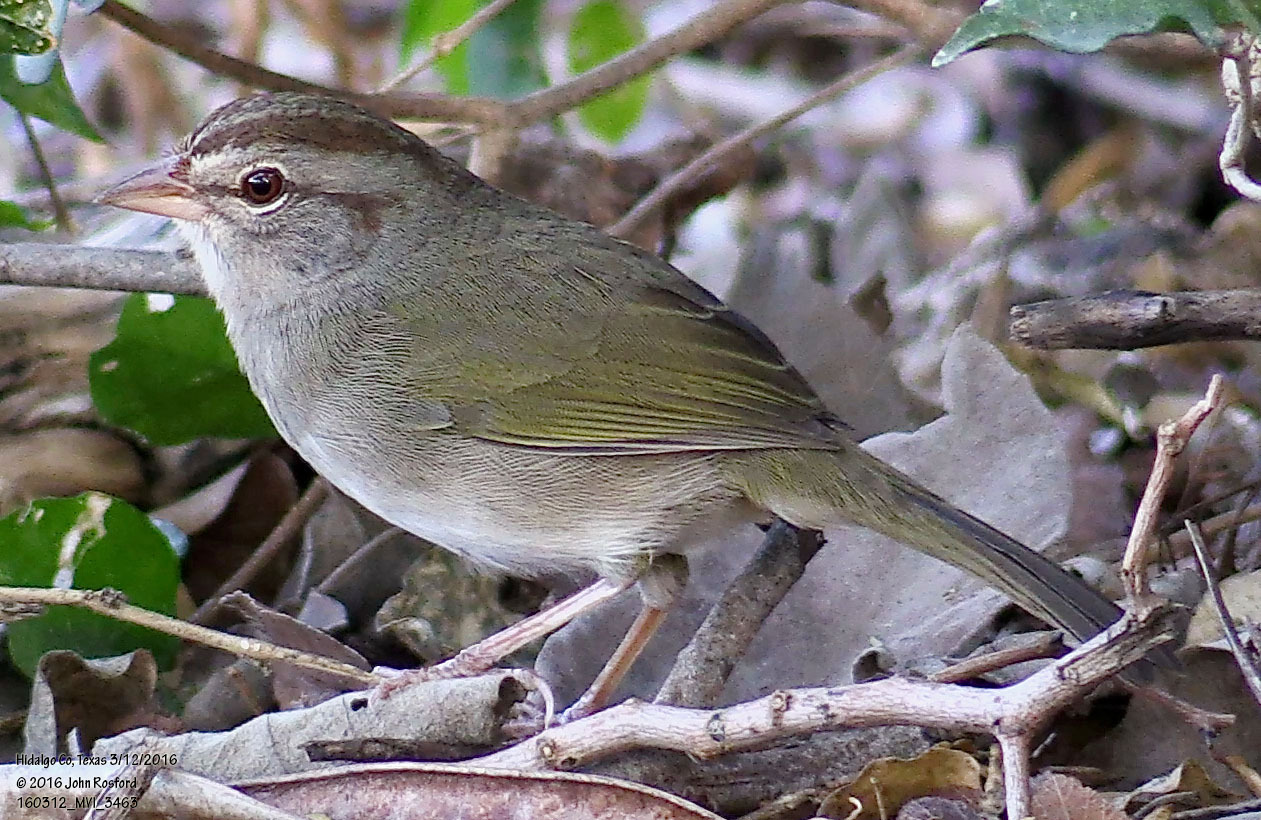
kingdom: Animalia
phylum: Chordata
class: Aves
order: Passeriformes
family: Passerellidae
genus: Arremonops
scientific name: Arremonops rufivirgatus
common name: Olive sparrow
